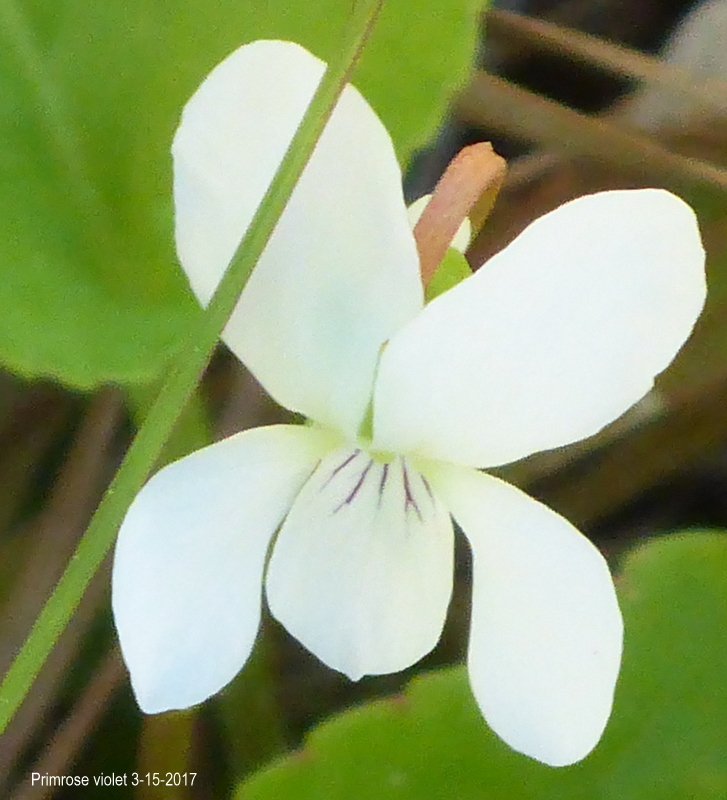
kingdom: Plantae
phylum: Tracheophyta
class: Magnoliopsida
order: Malpighiales
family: Violaceae
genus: Viola
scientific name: Viola primulifolia
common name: Primrose-leaf violet
